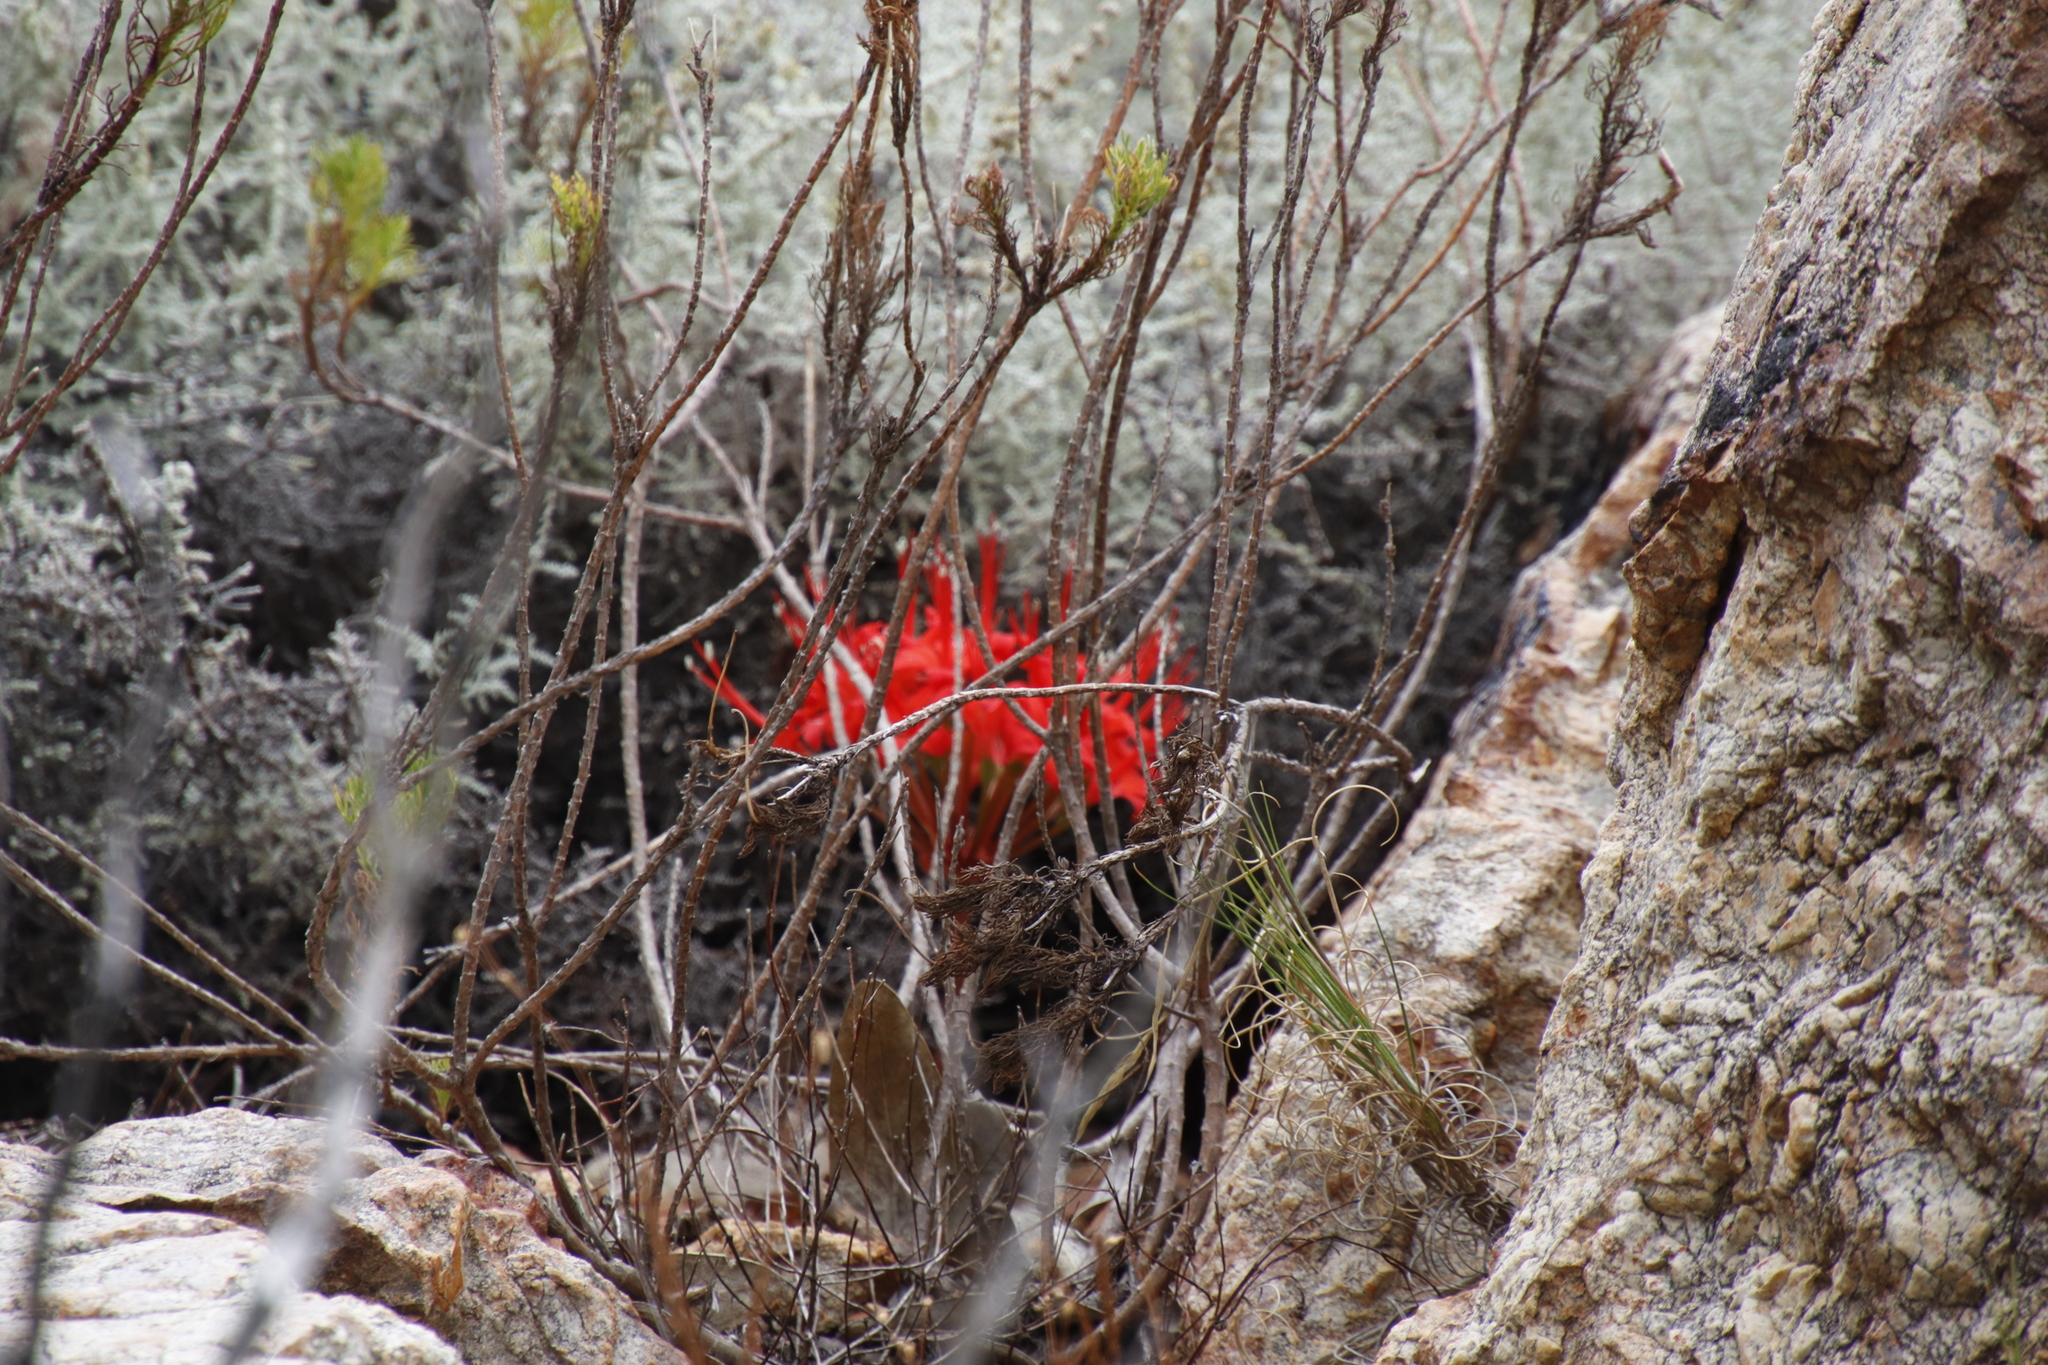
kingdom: Plantae
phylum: Tracheophyta
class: Liliopsida
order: Asparagales
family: Amaryllidaceae
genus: Brunsvigia
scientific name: Brunsvigia marginata
